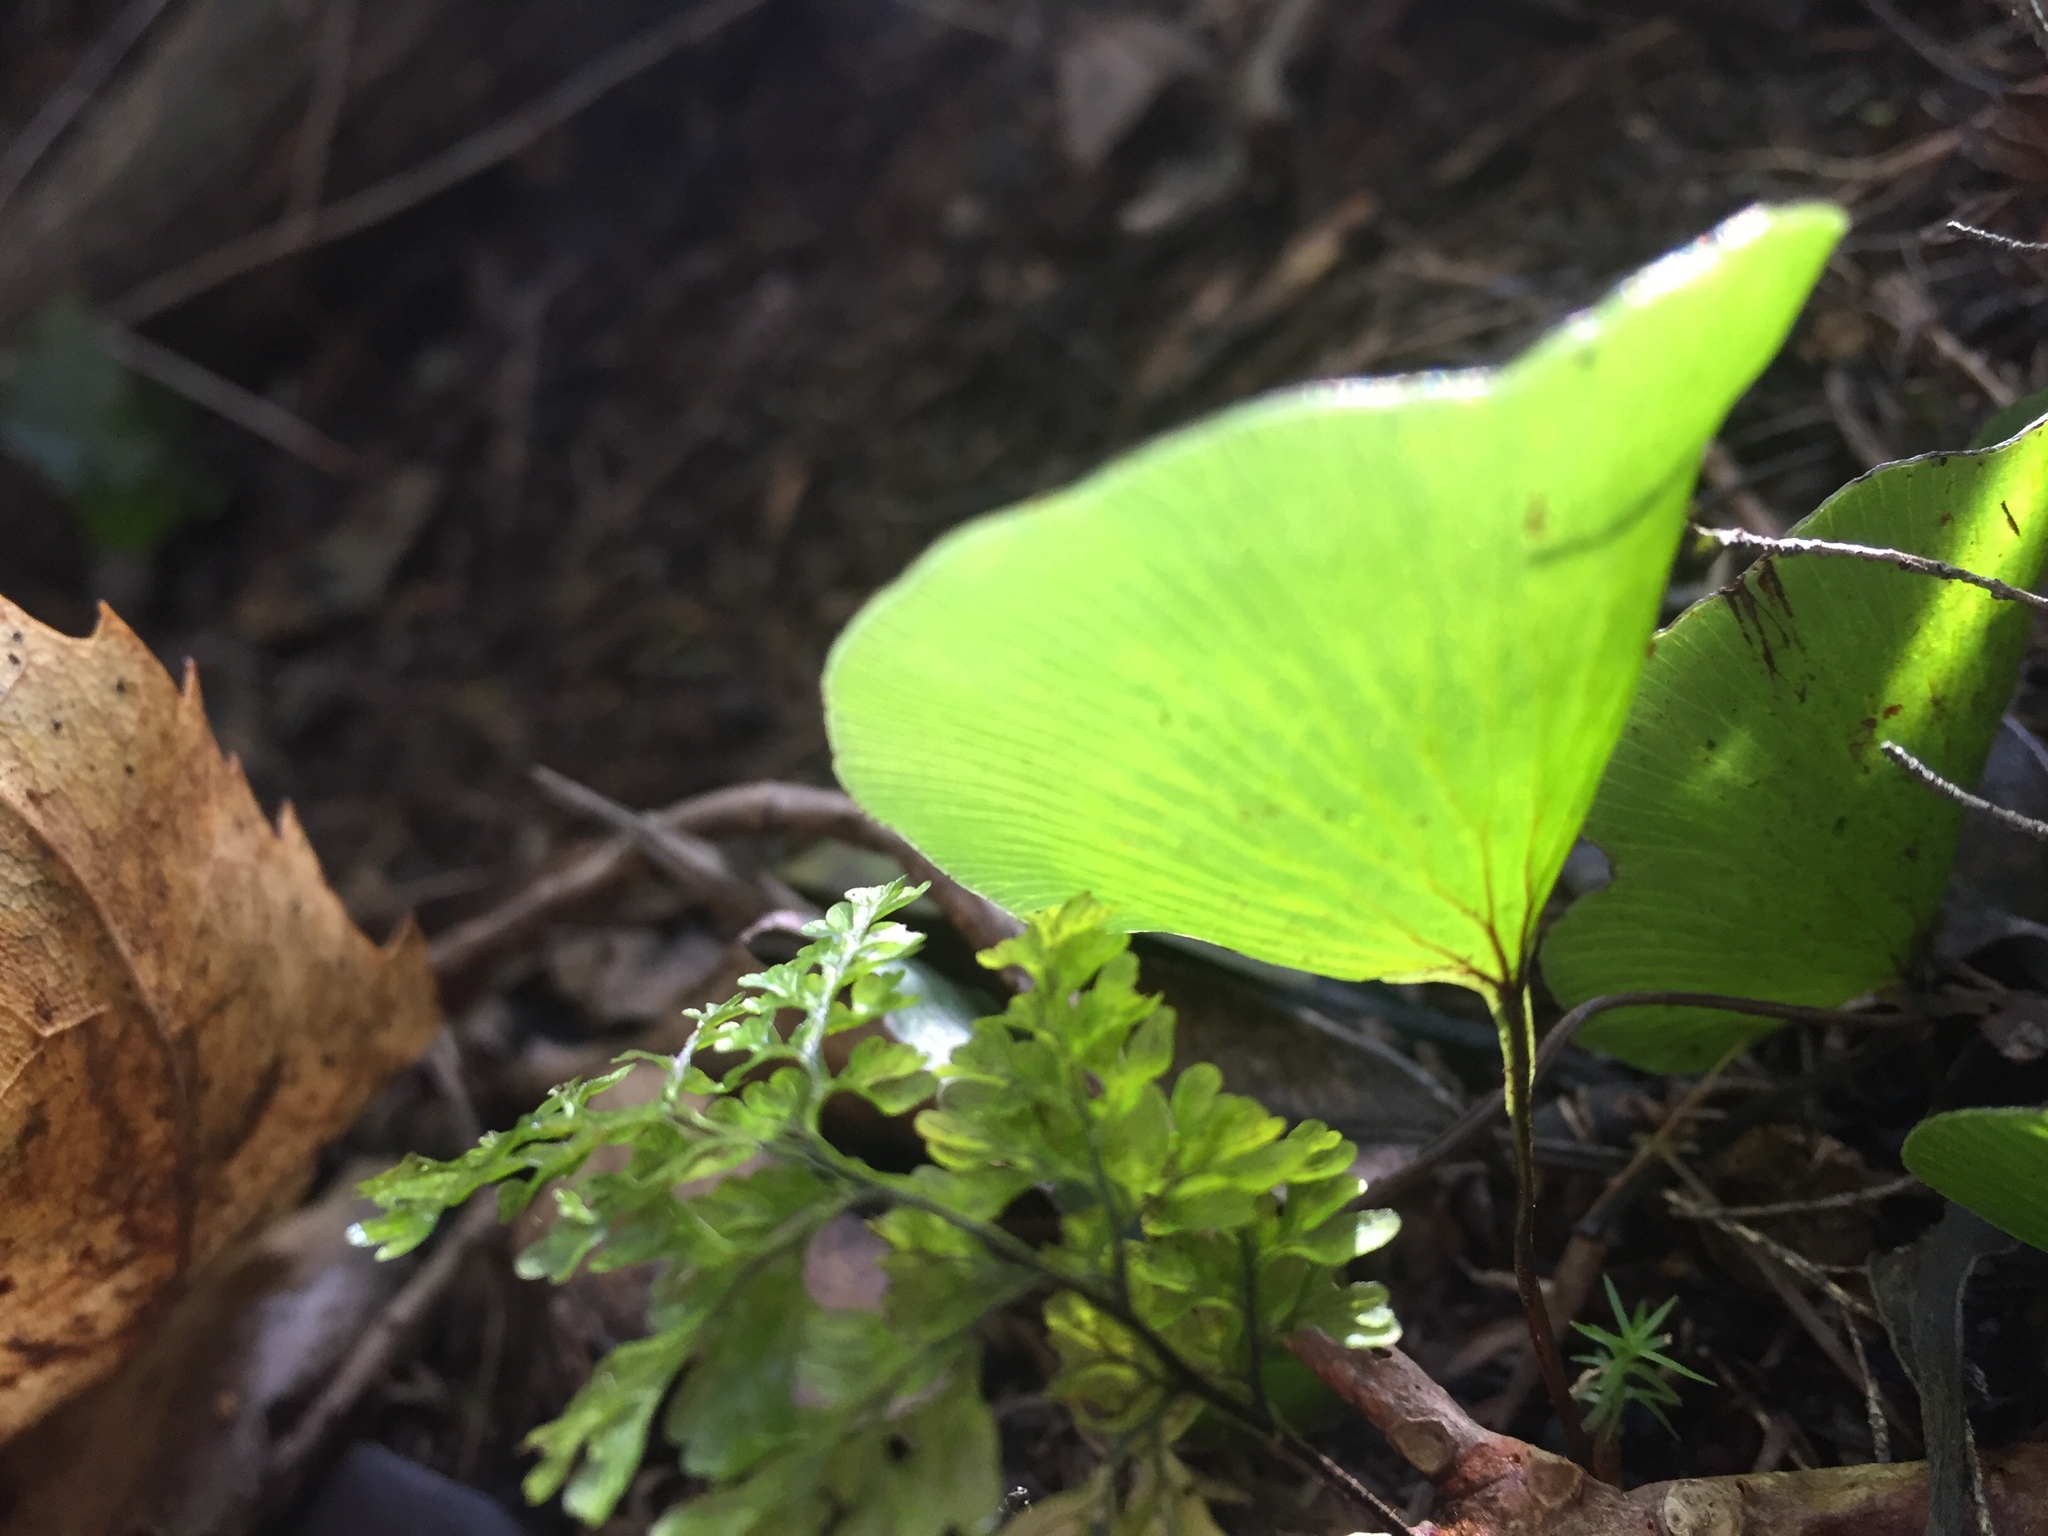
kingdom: Plantae
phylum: Tracheophyta
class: Polypodiopsida
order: Hymenophyllales
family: Hymenophyllaceae
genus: Hymenophyllum
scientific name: Hymenophyllum nephrophyllum
